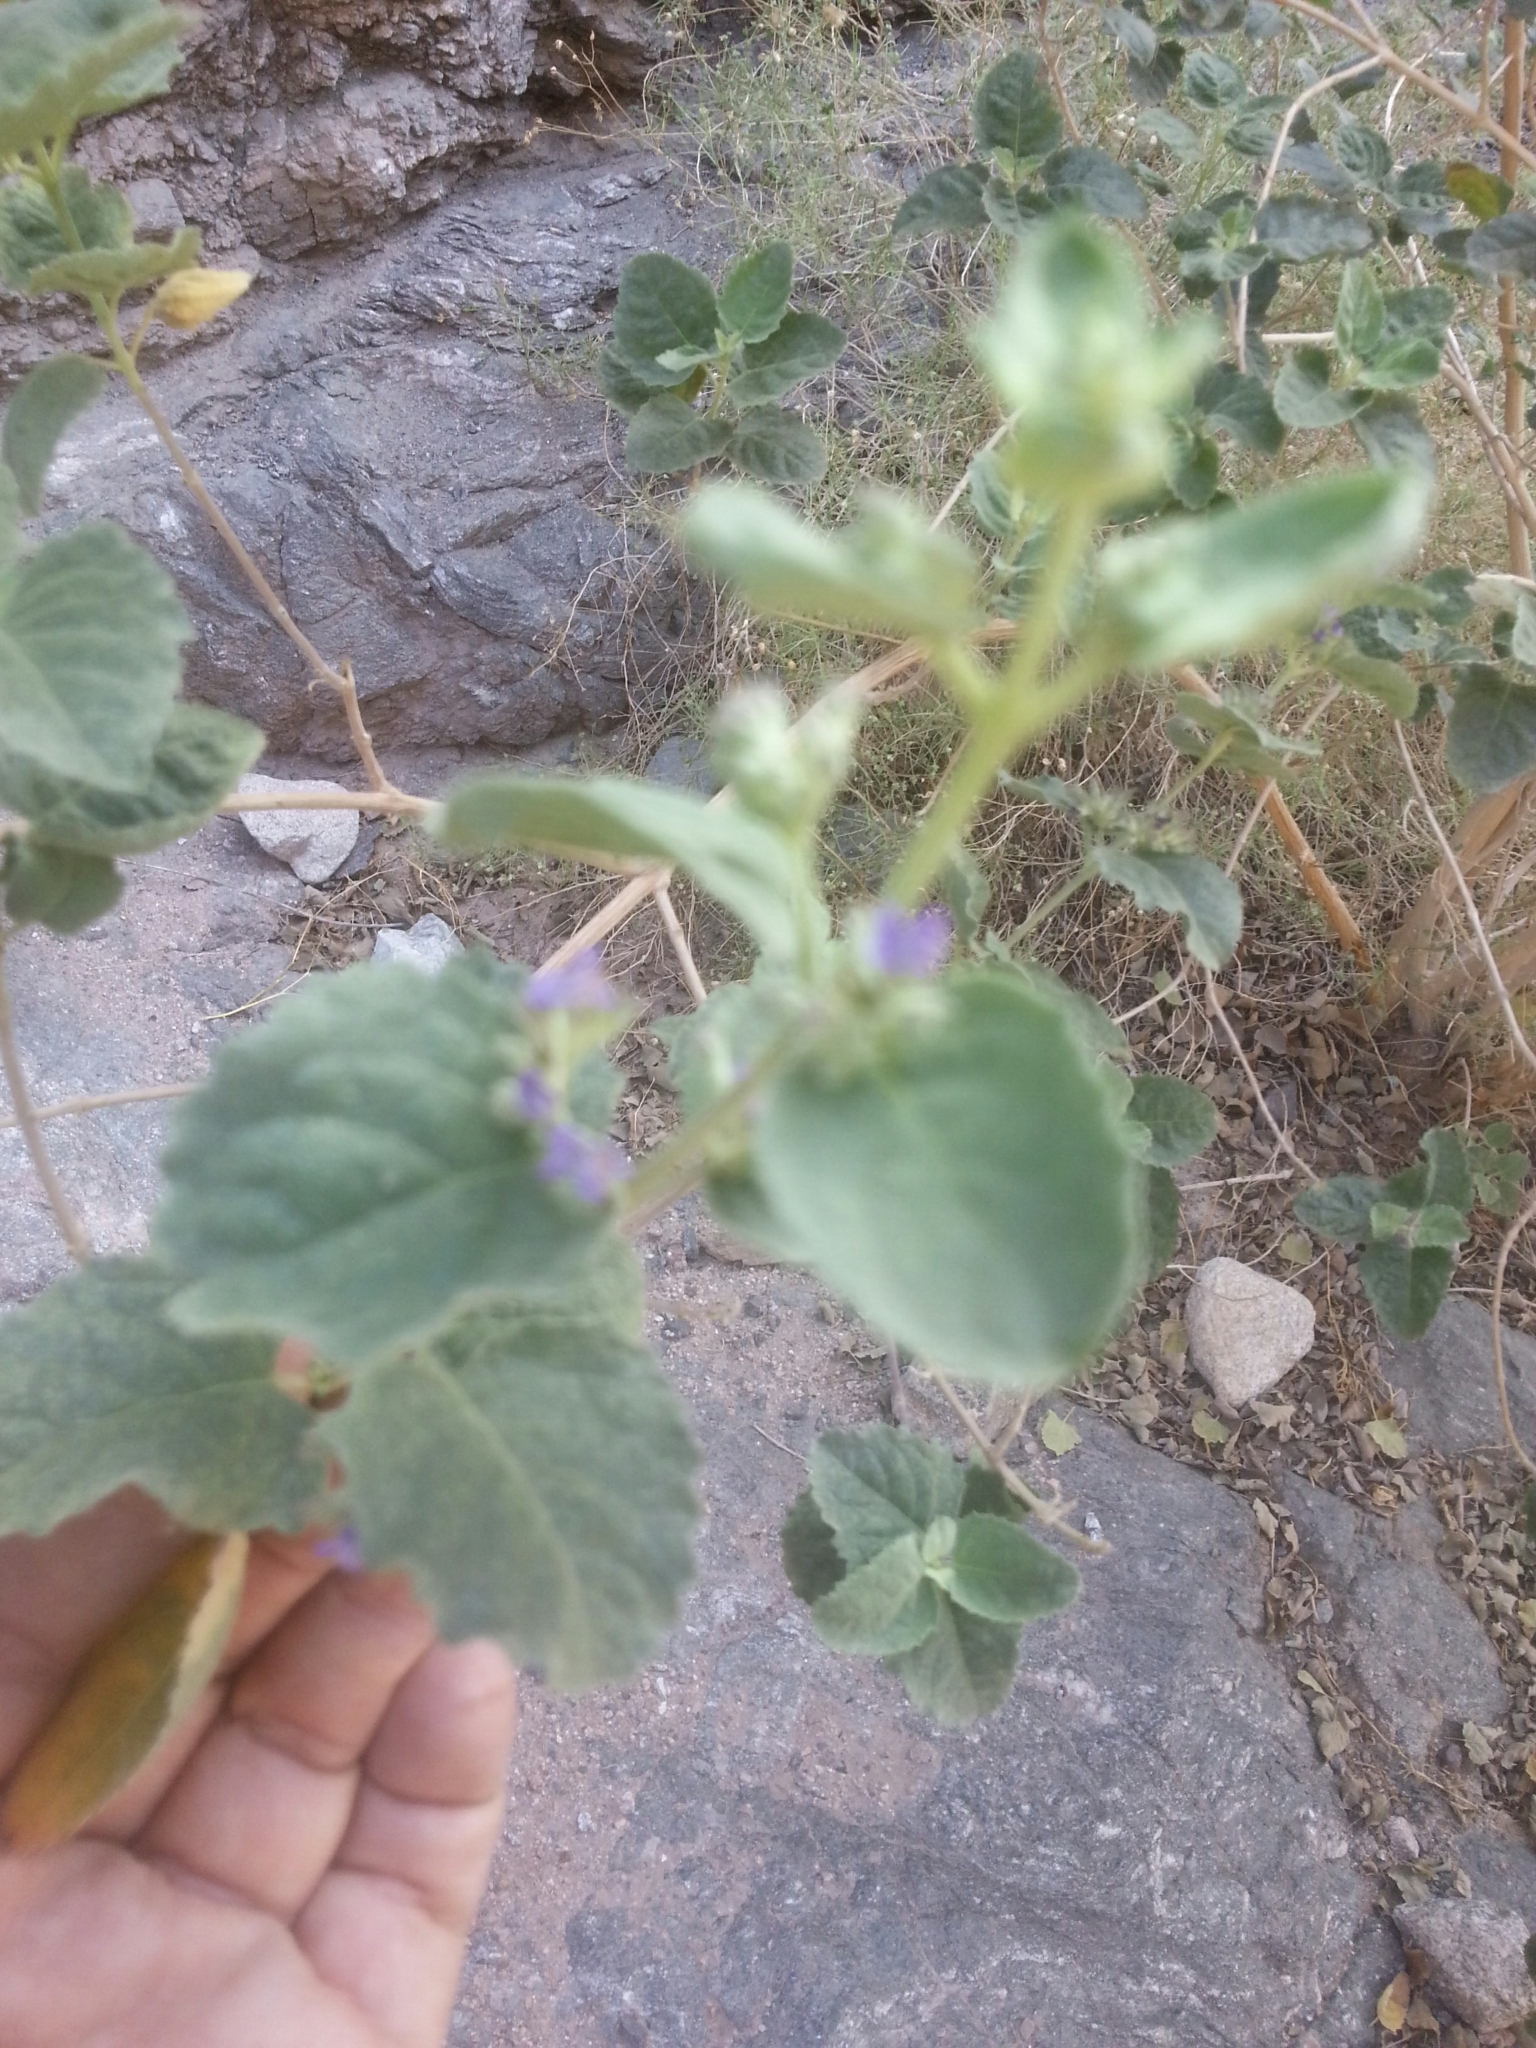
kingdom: Plantae
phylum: Tracheophyta
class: Magnoliopsida
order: Lamiales
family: Lamiaceae
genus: Condea
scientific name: Condea emoryi
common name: Chia
